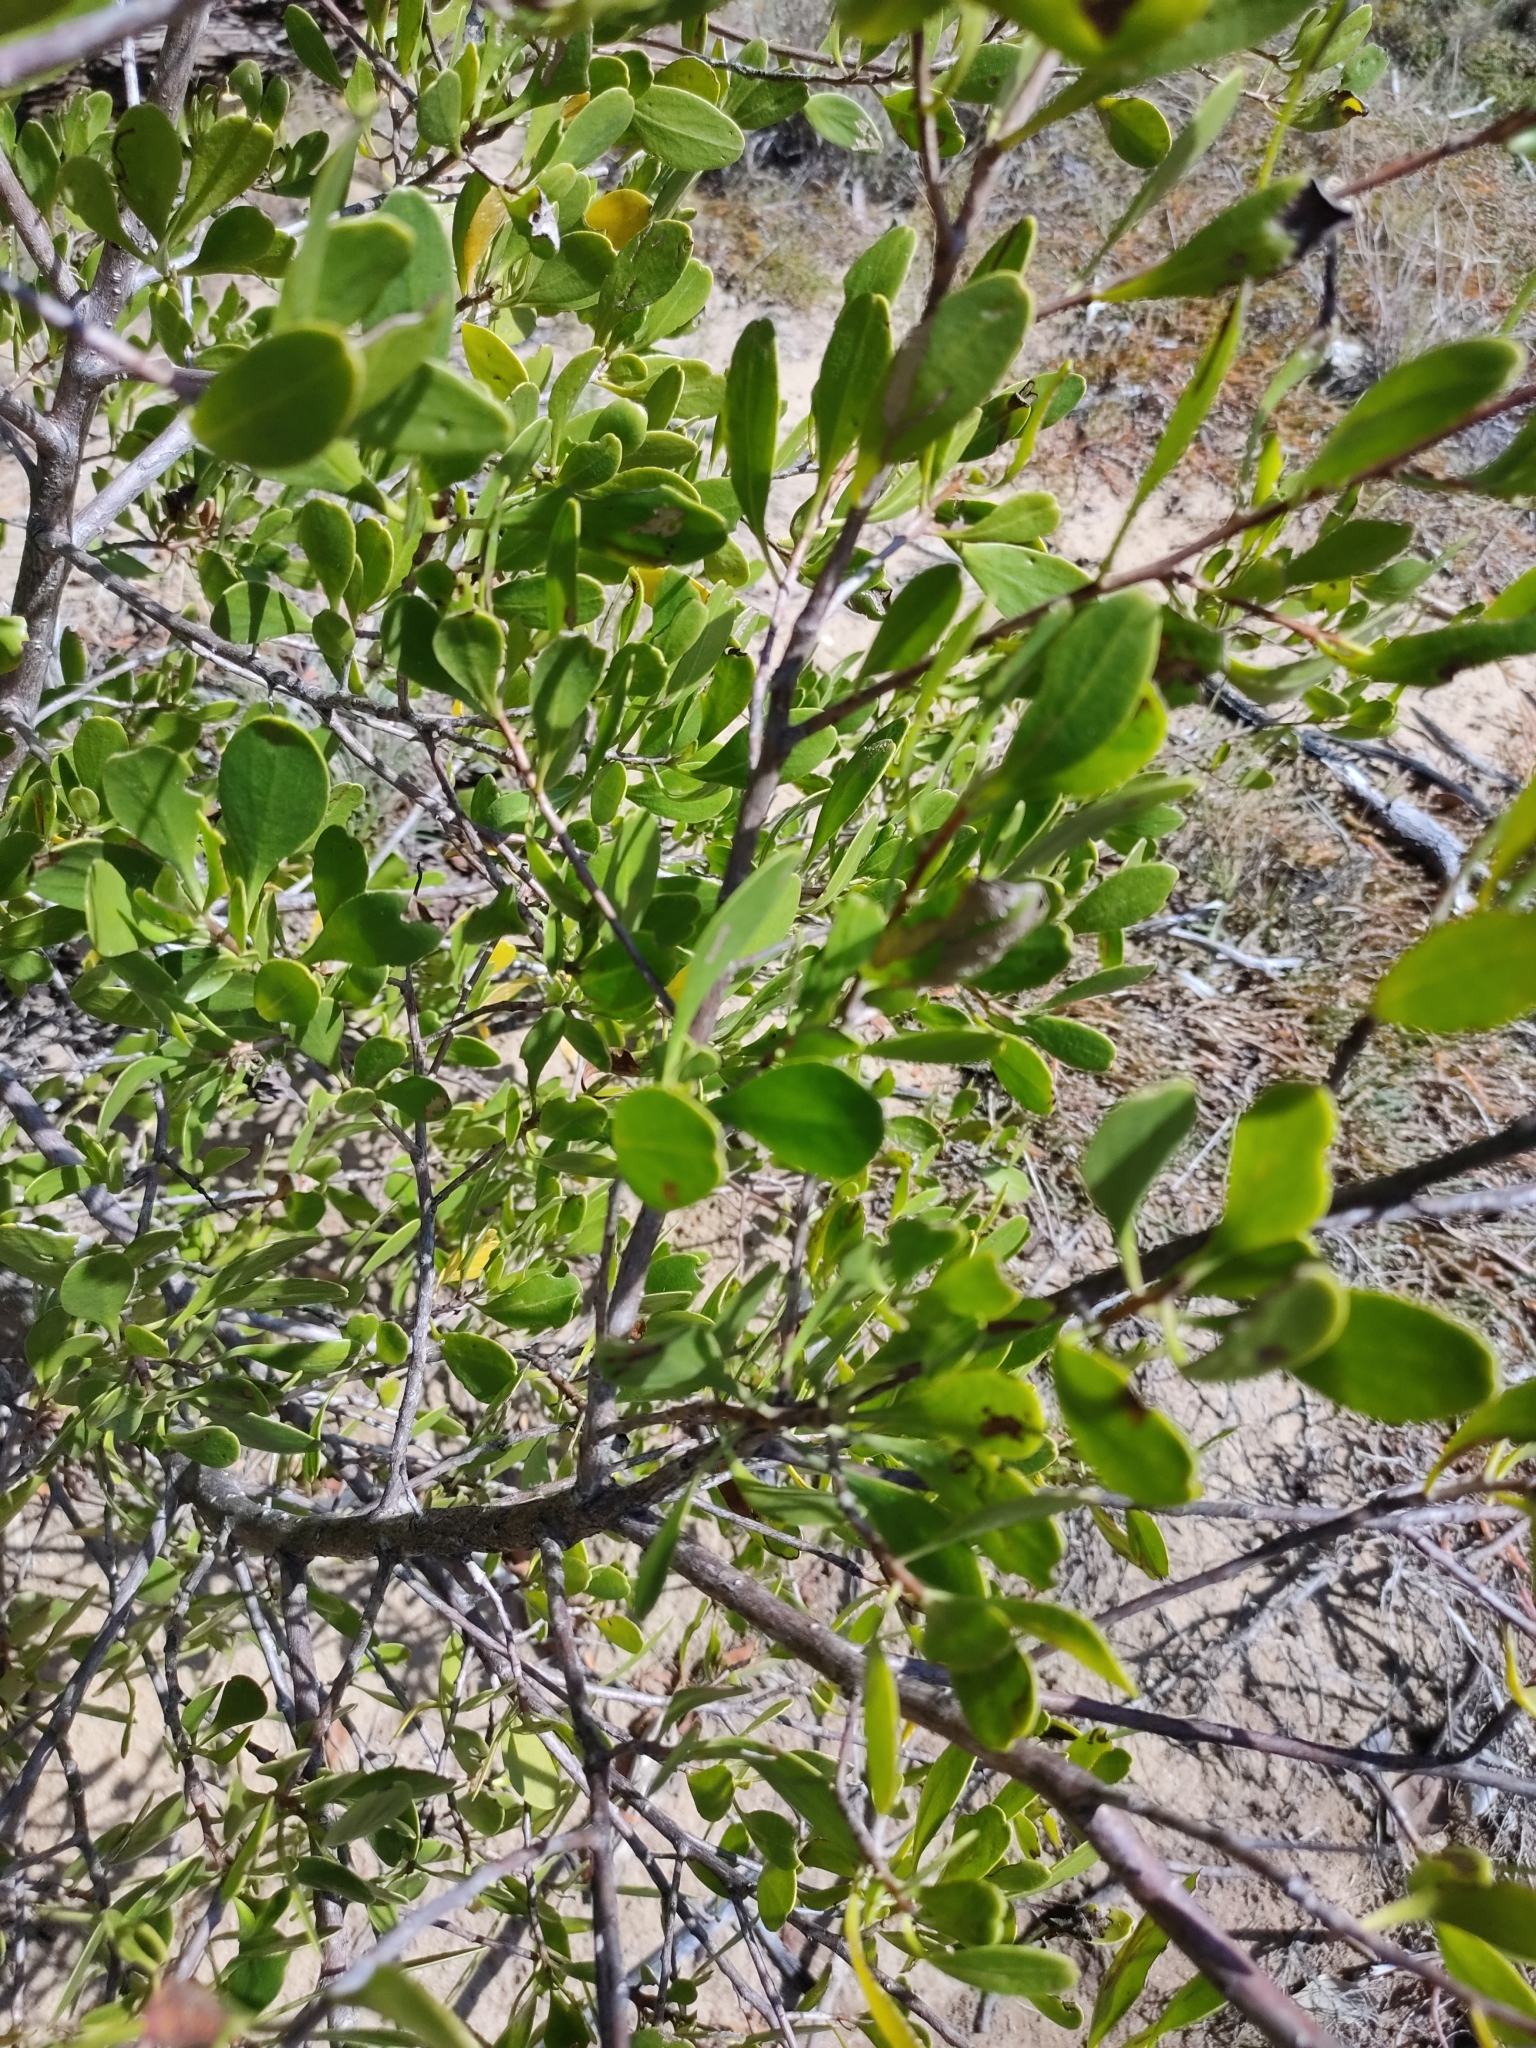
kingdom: Plantae
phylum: Tracheophyta
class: Magnoliopsida
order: Myrtales
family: Combretaceae
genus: Lumnitzera
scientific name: Lumnitzera racemosa
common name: White-flowered black mangrove
